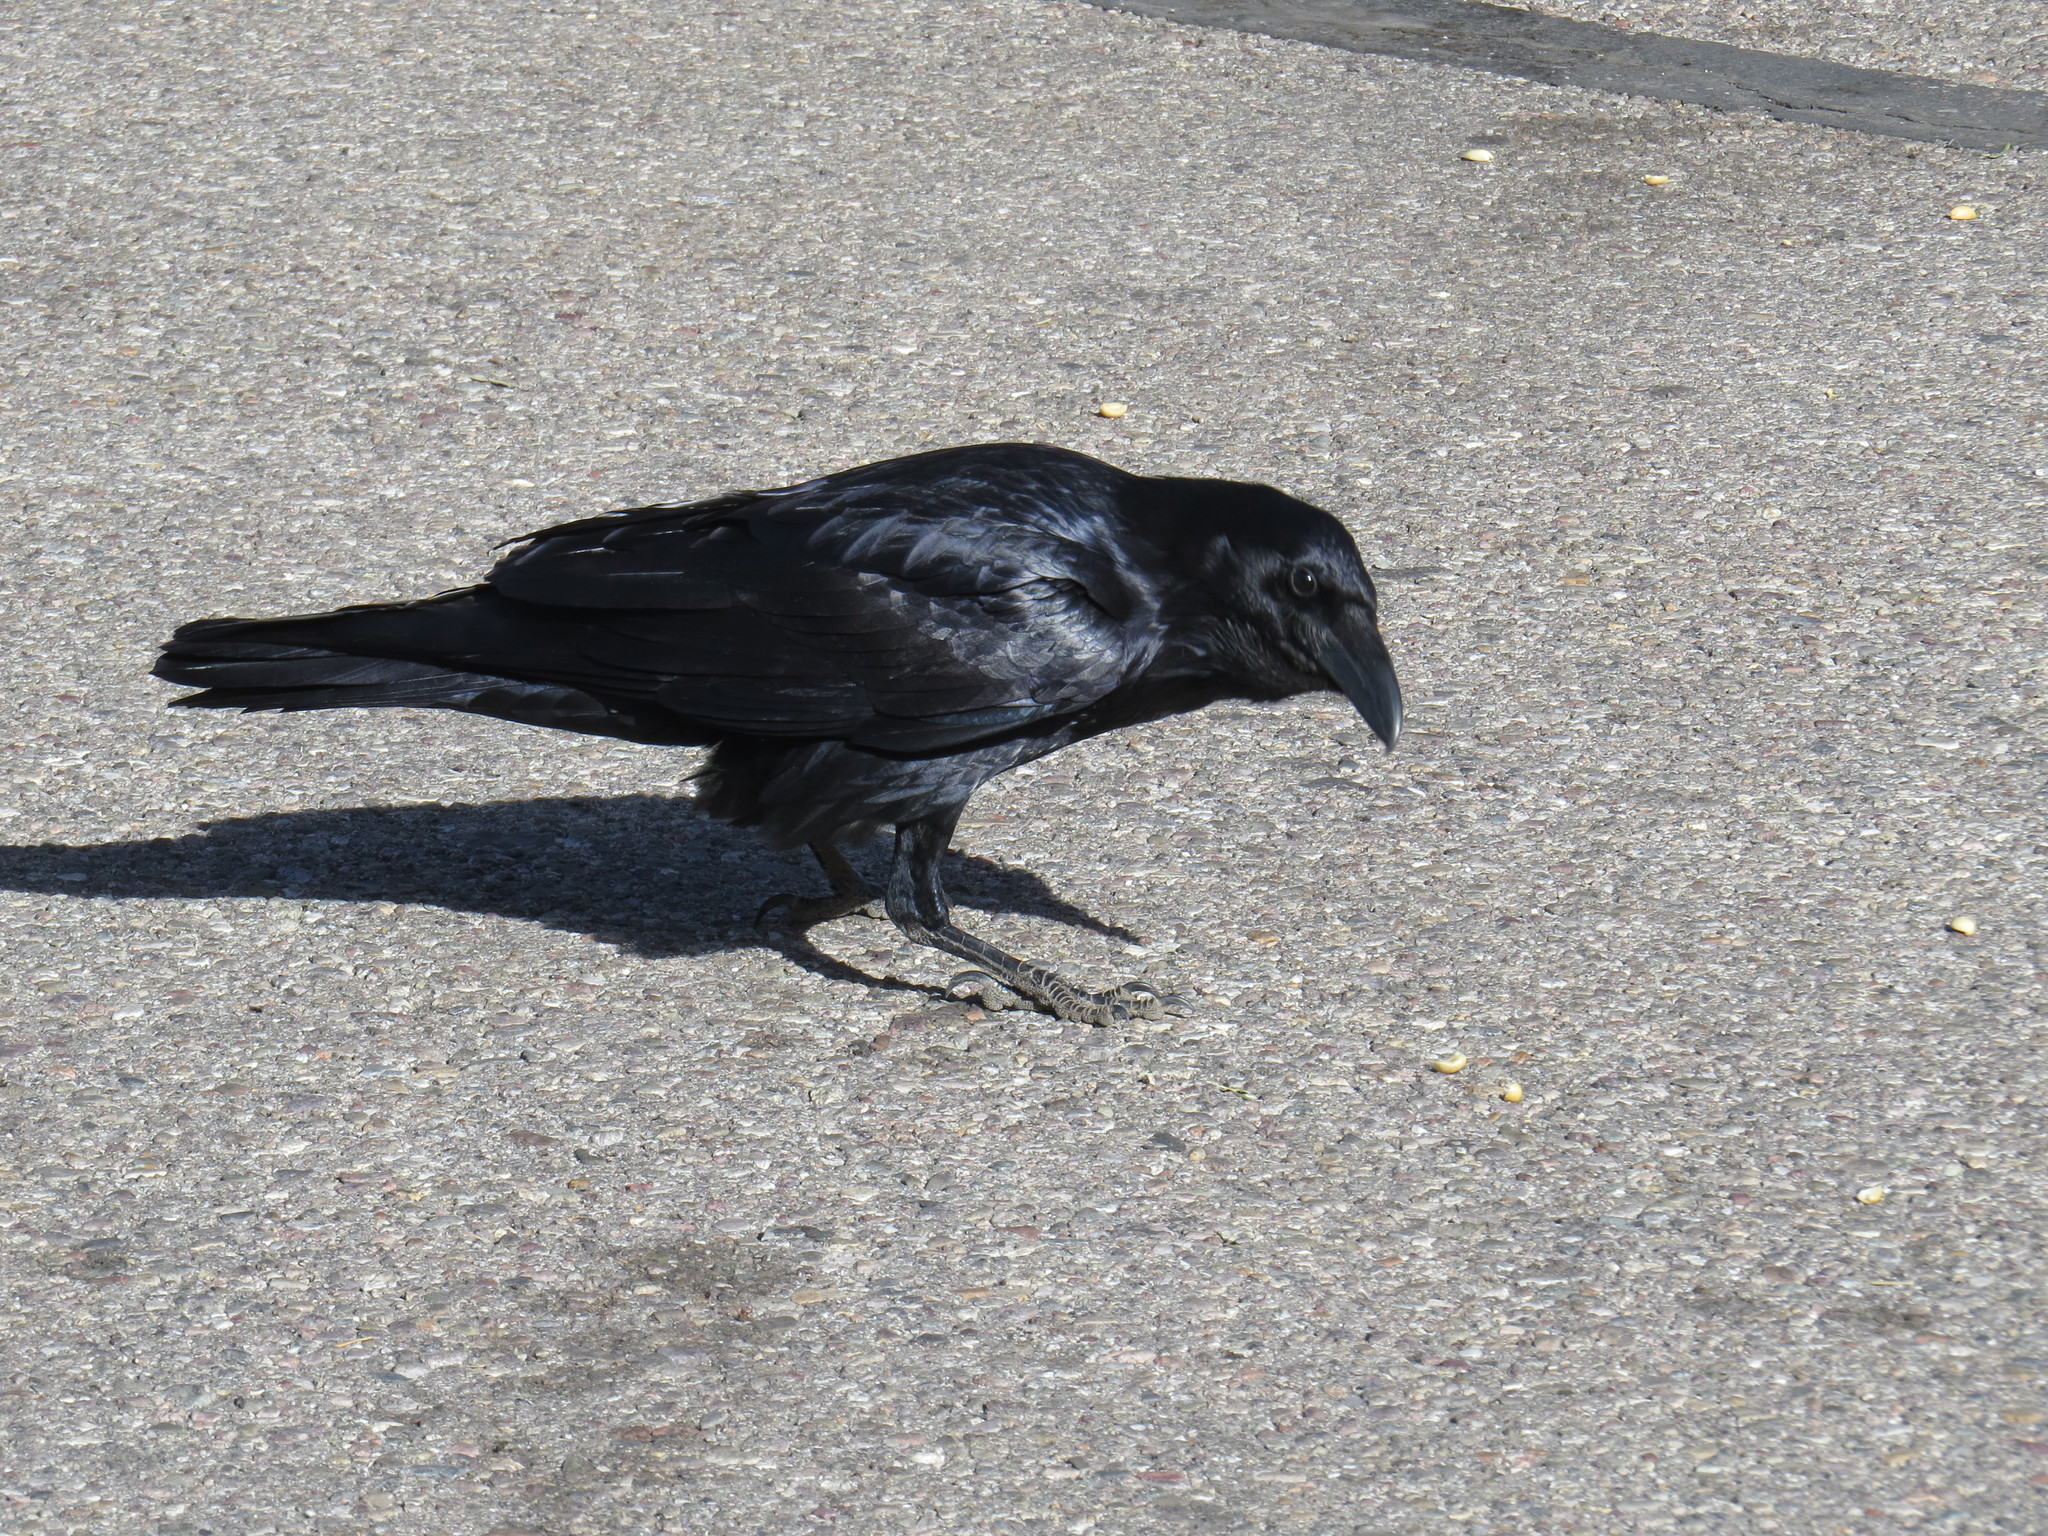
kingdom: Animalia
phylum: Chordata
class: Aves
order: Passeriformes
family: Corvidae
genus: Corvus
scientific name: Corvus corax
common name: Common raven
